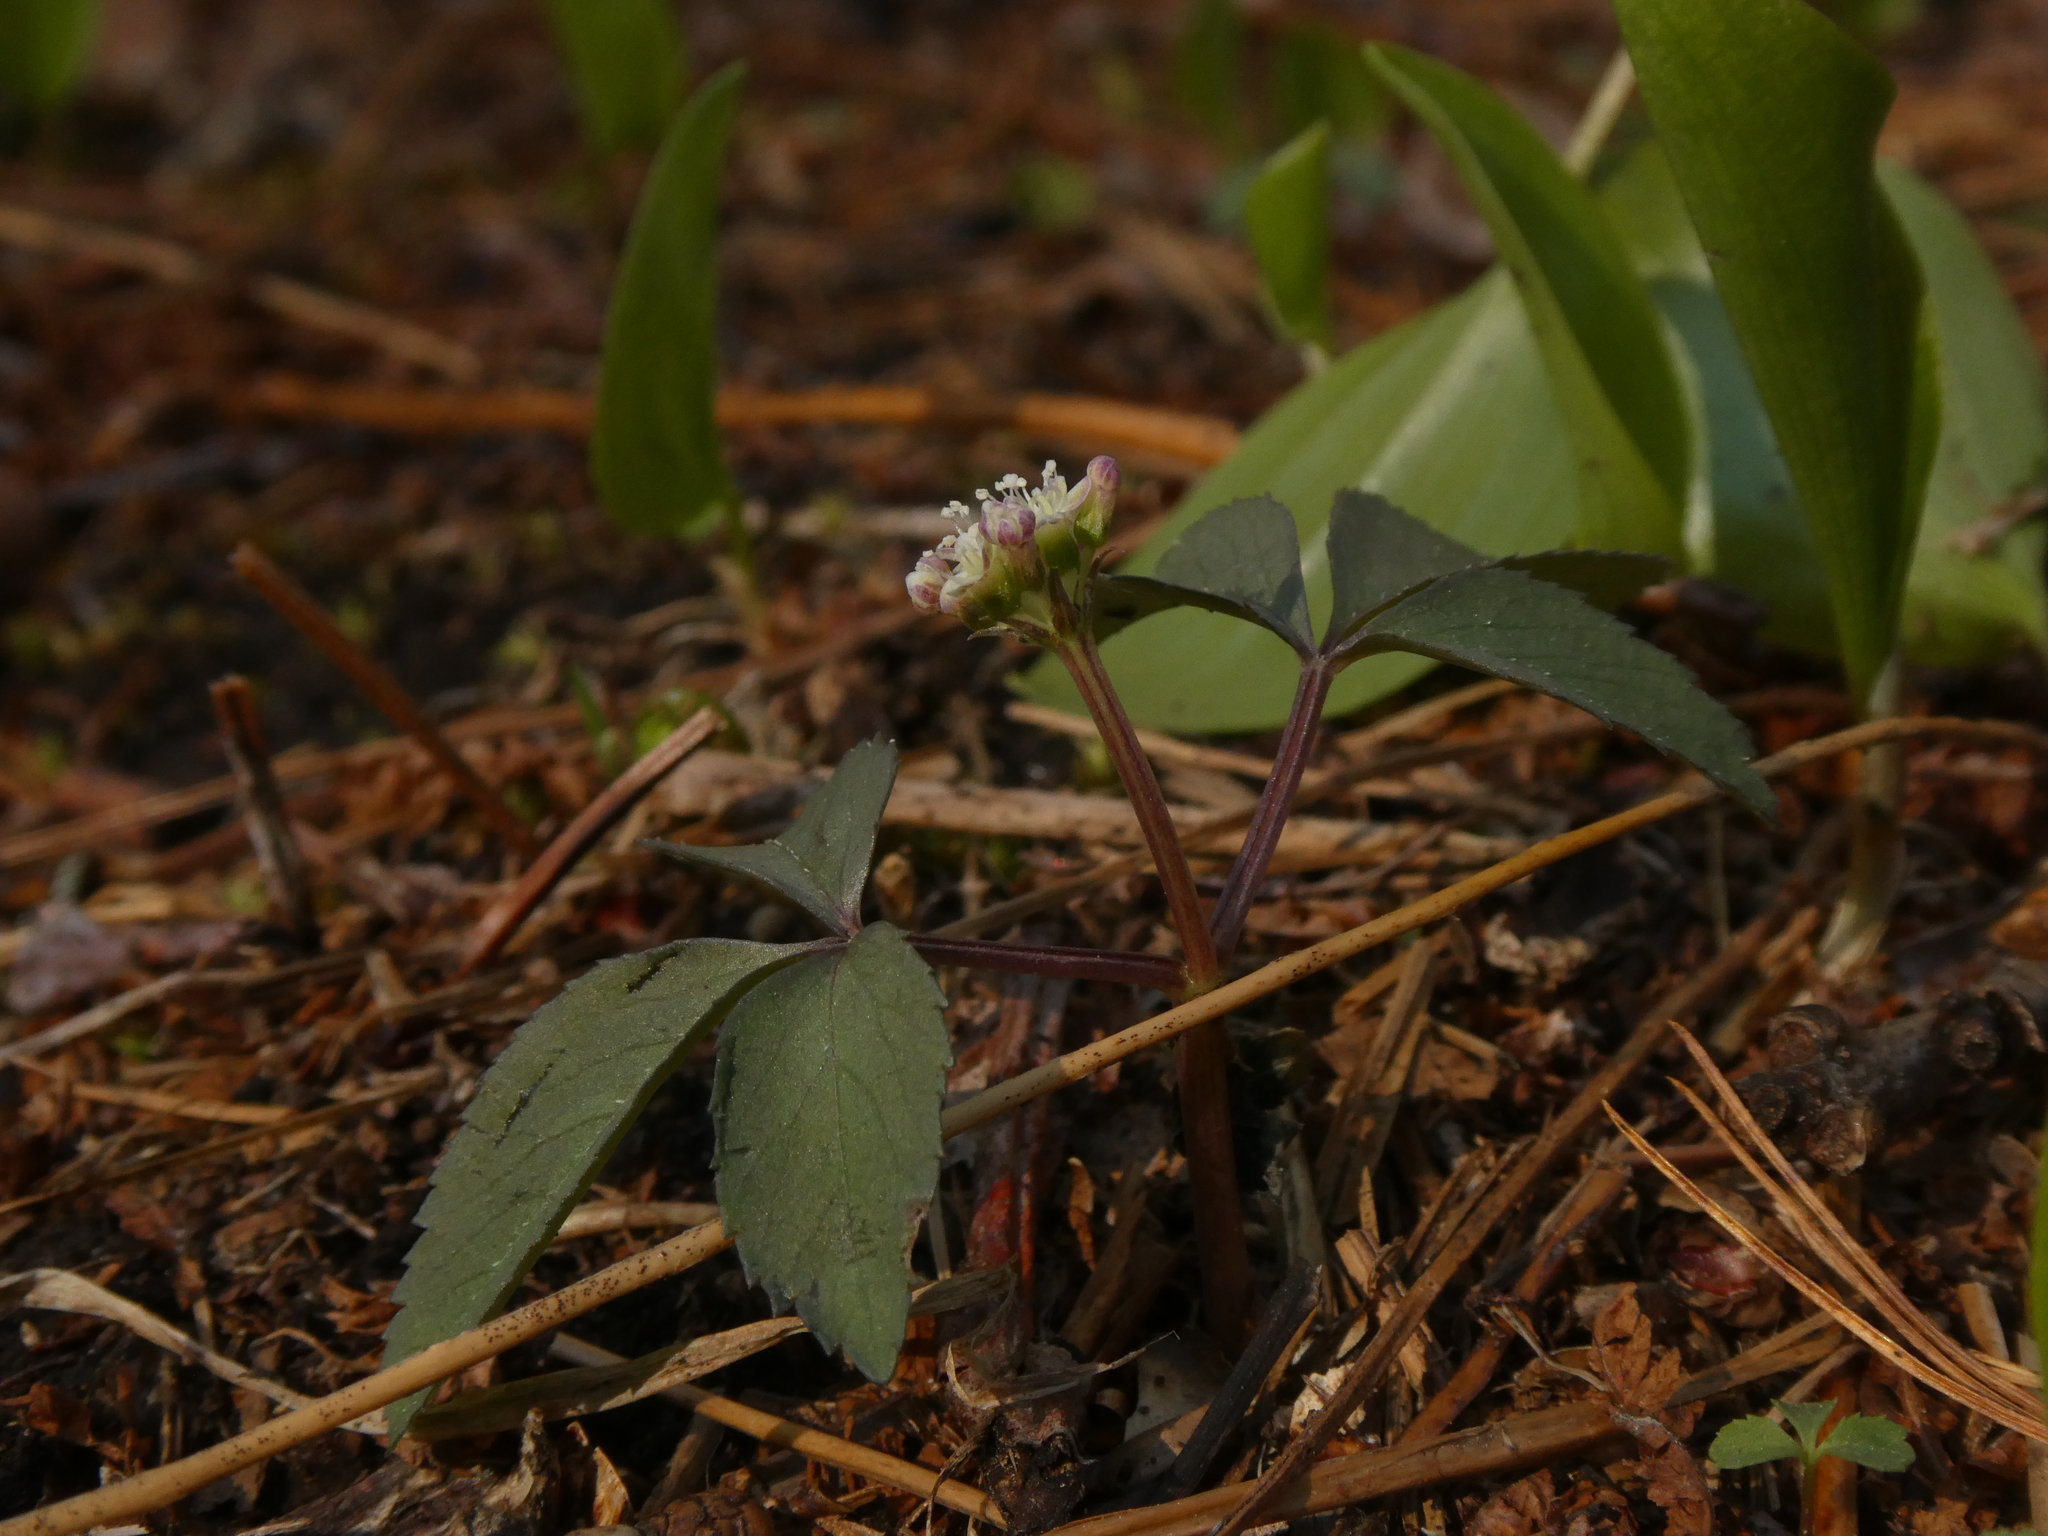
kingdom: Plantae
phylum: Tracheophyta
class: Magnoliopsida
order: Apiales
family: Araliaceae
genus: Panax
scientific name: Panax trifolius
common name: Dwarf ginseng
